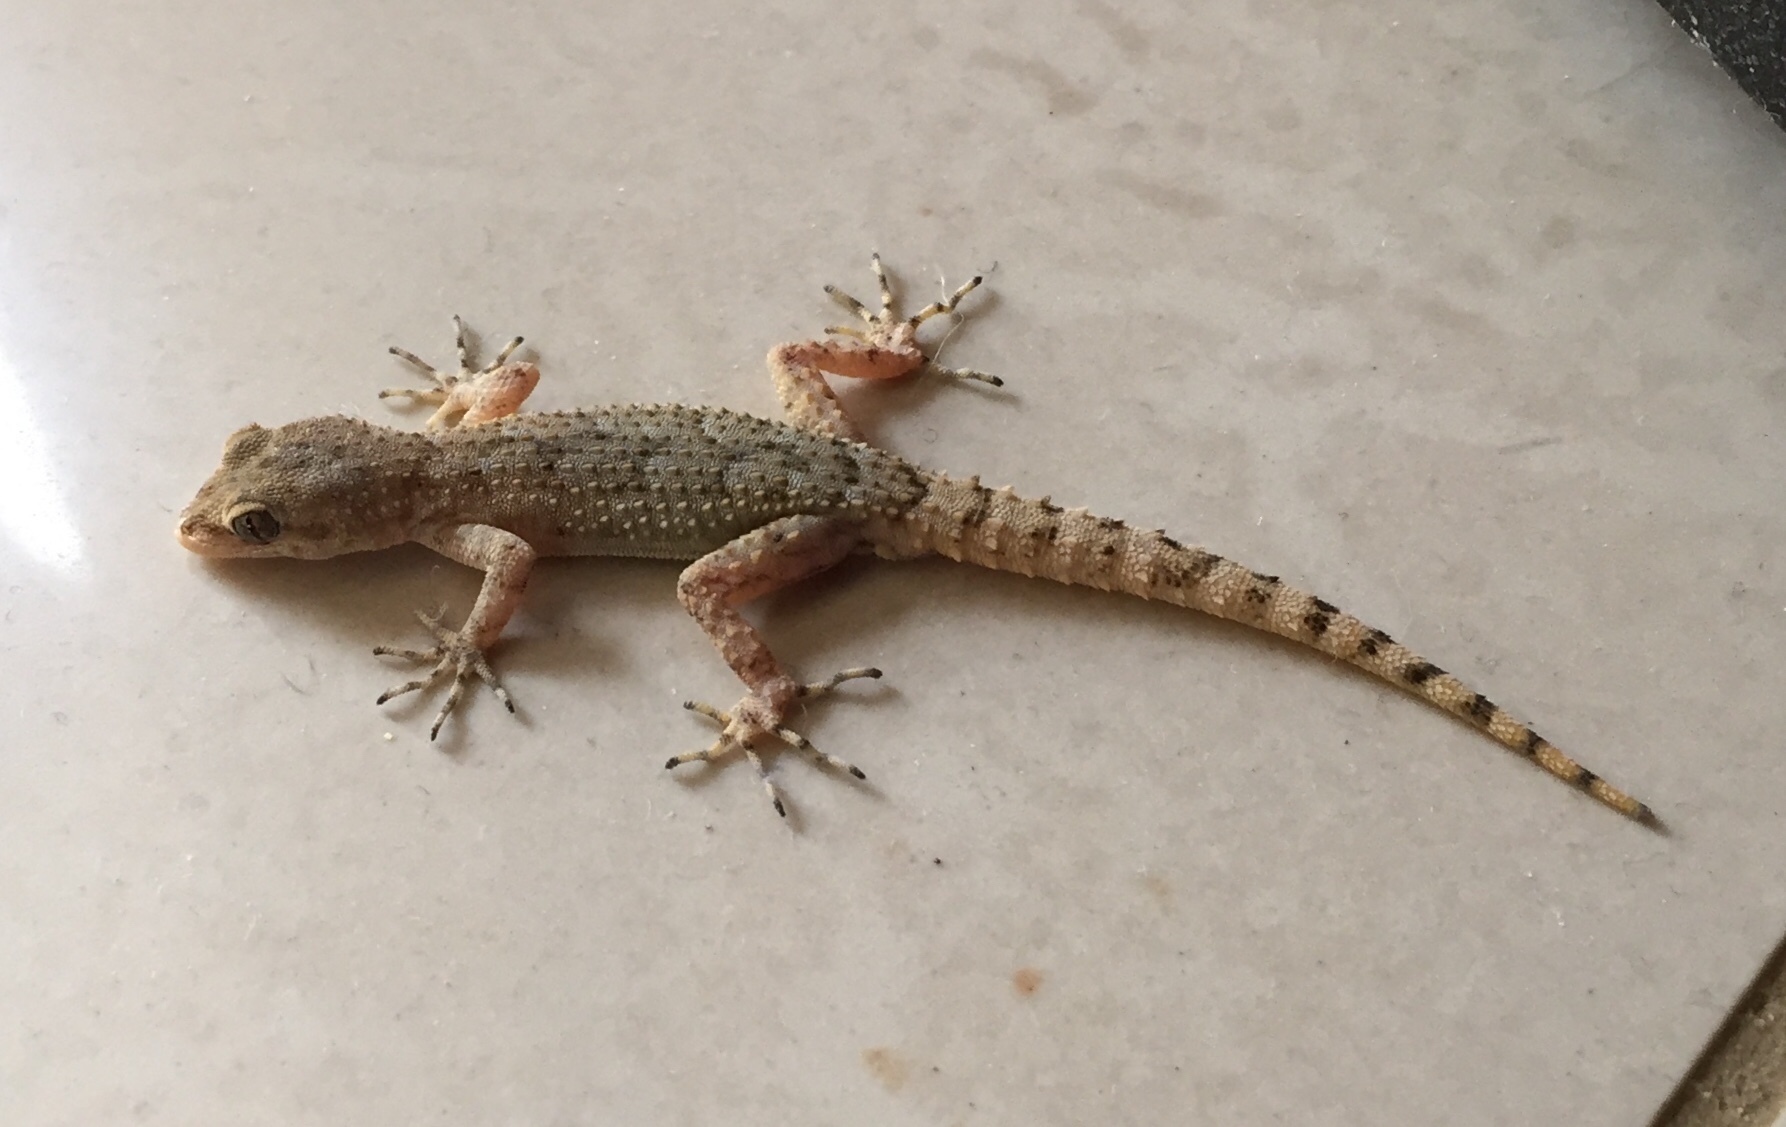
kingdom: Animalia
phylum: Chordata
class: Squamata
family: Gekkonidae
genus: Mediodactylus
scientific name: Mediodactylus kotschyi
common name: Kotschy's gecko
